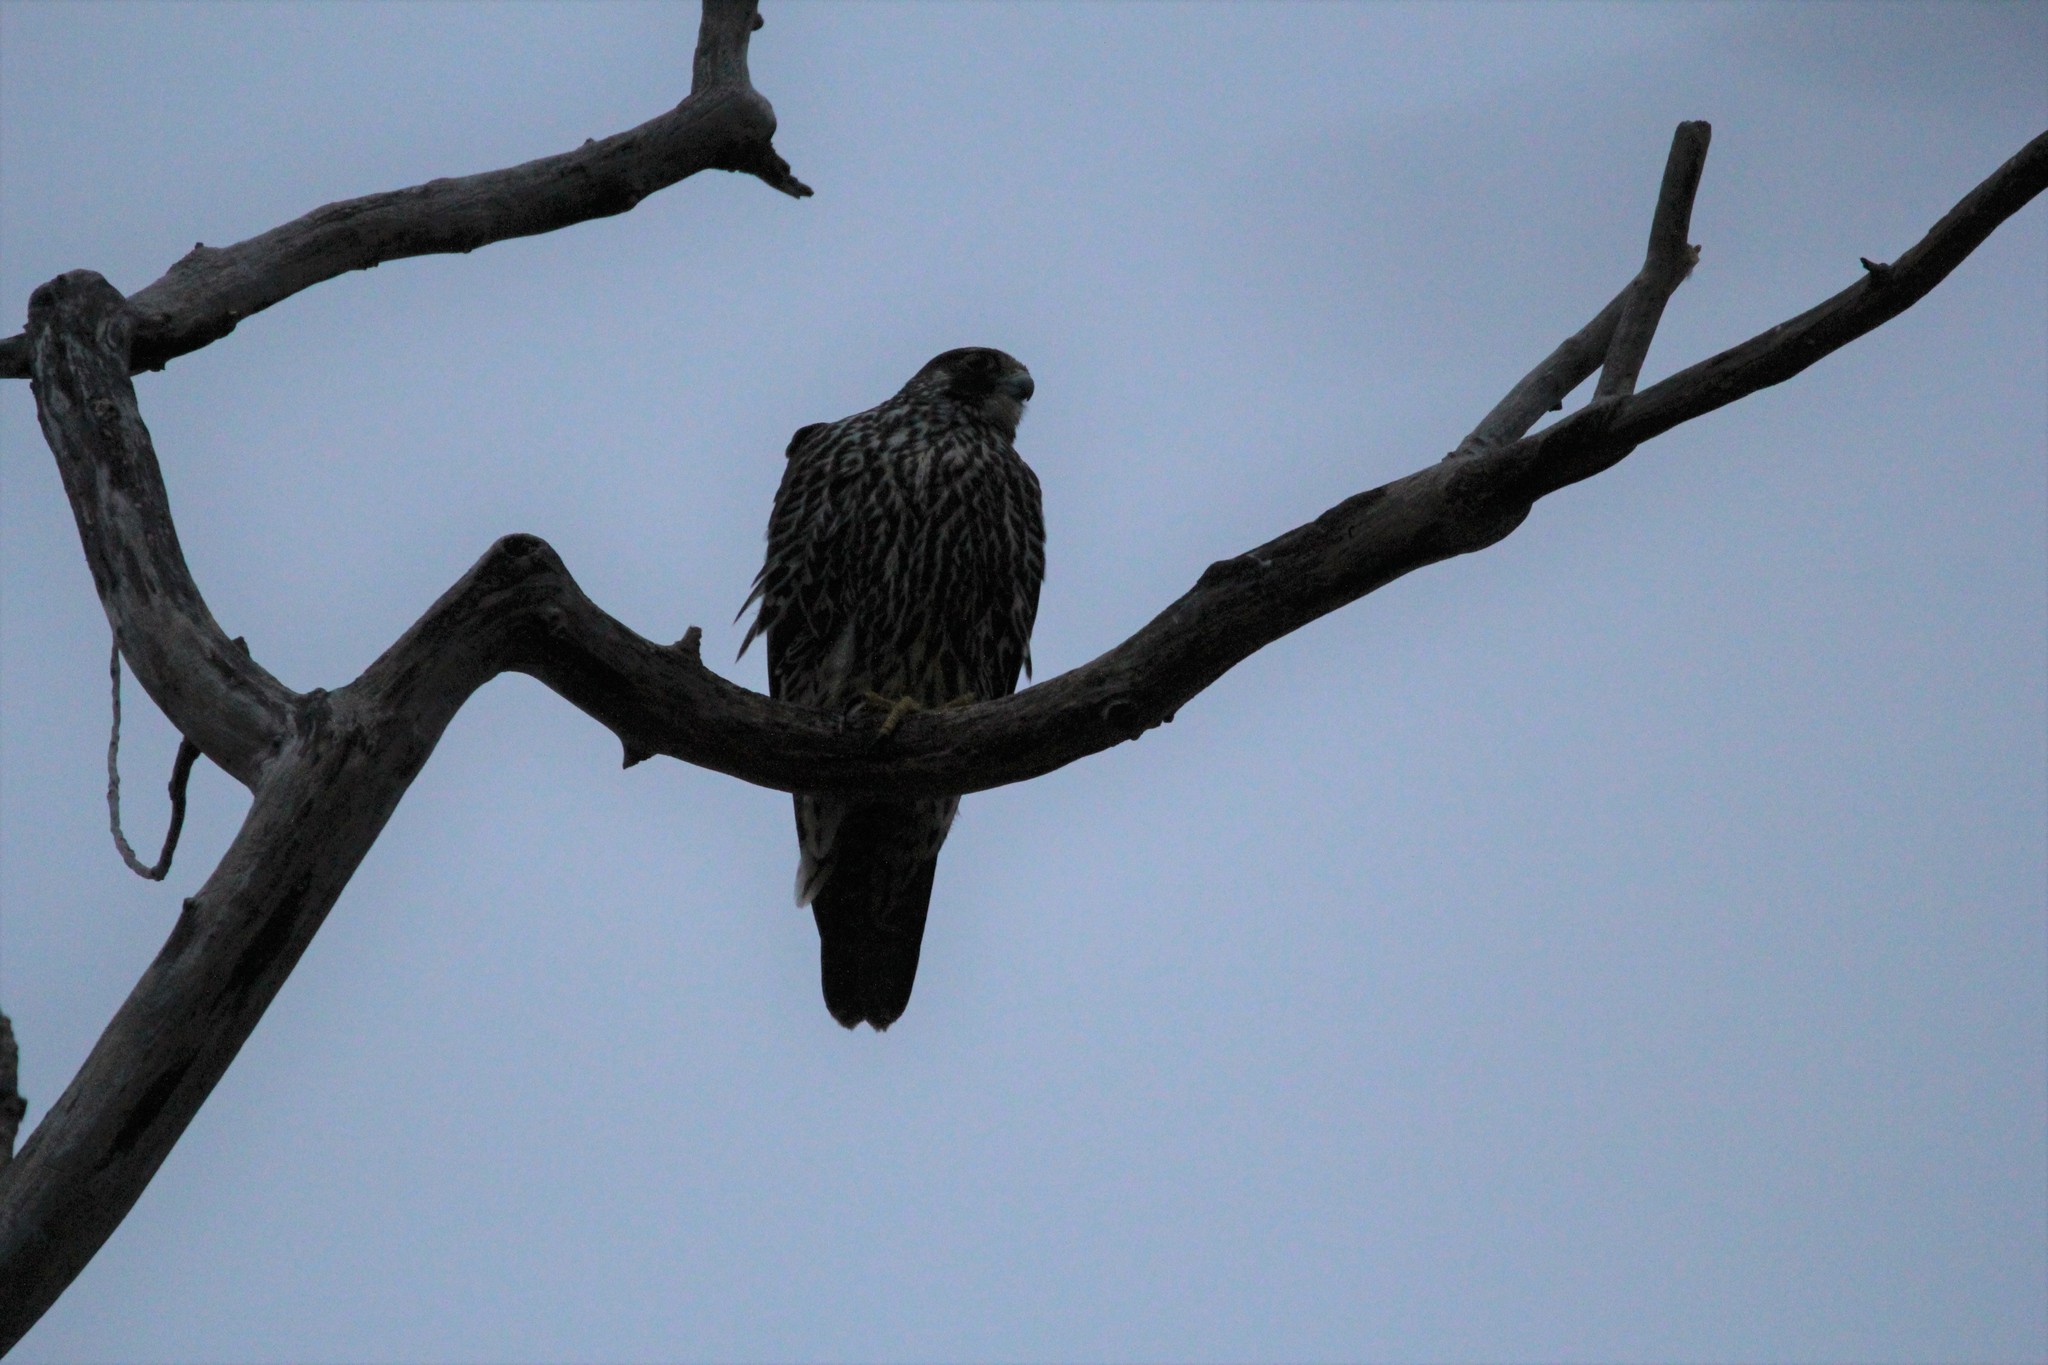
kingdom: Animalia
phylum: Chordata
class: Aves
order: Falconiformes
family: Falconidae
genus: Falco
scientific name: Falco peregrinus
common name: Peregrine falcon
